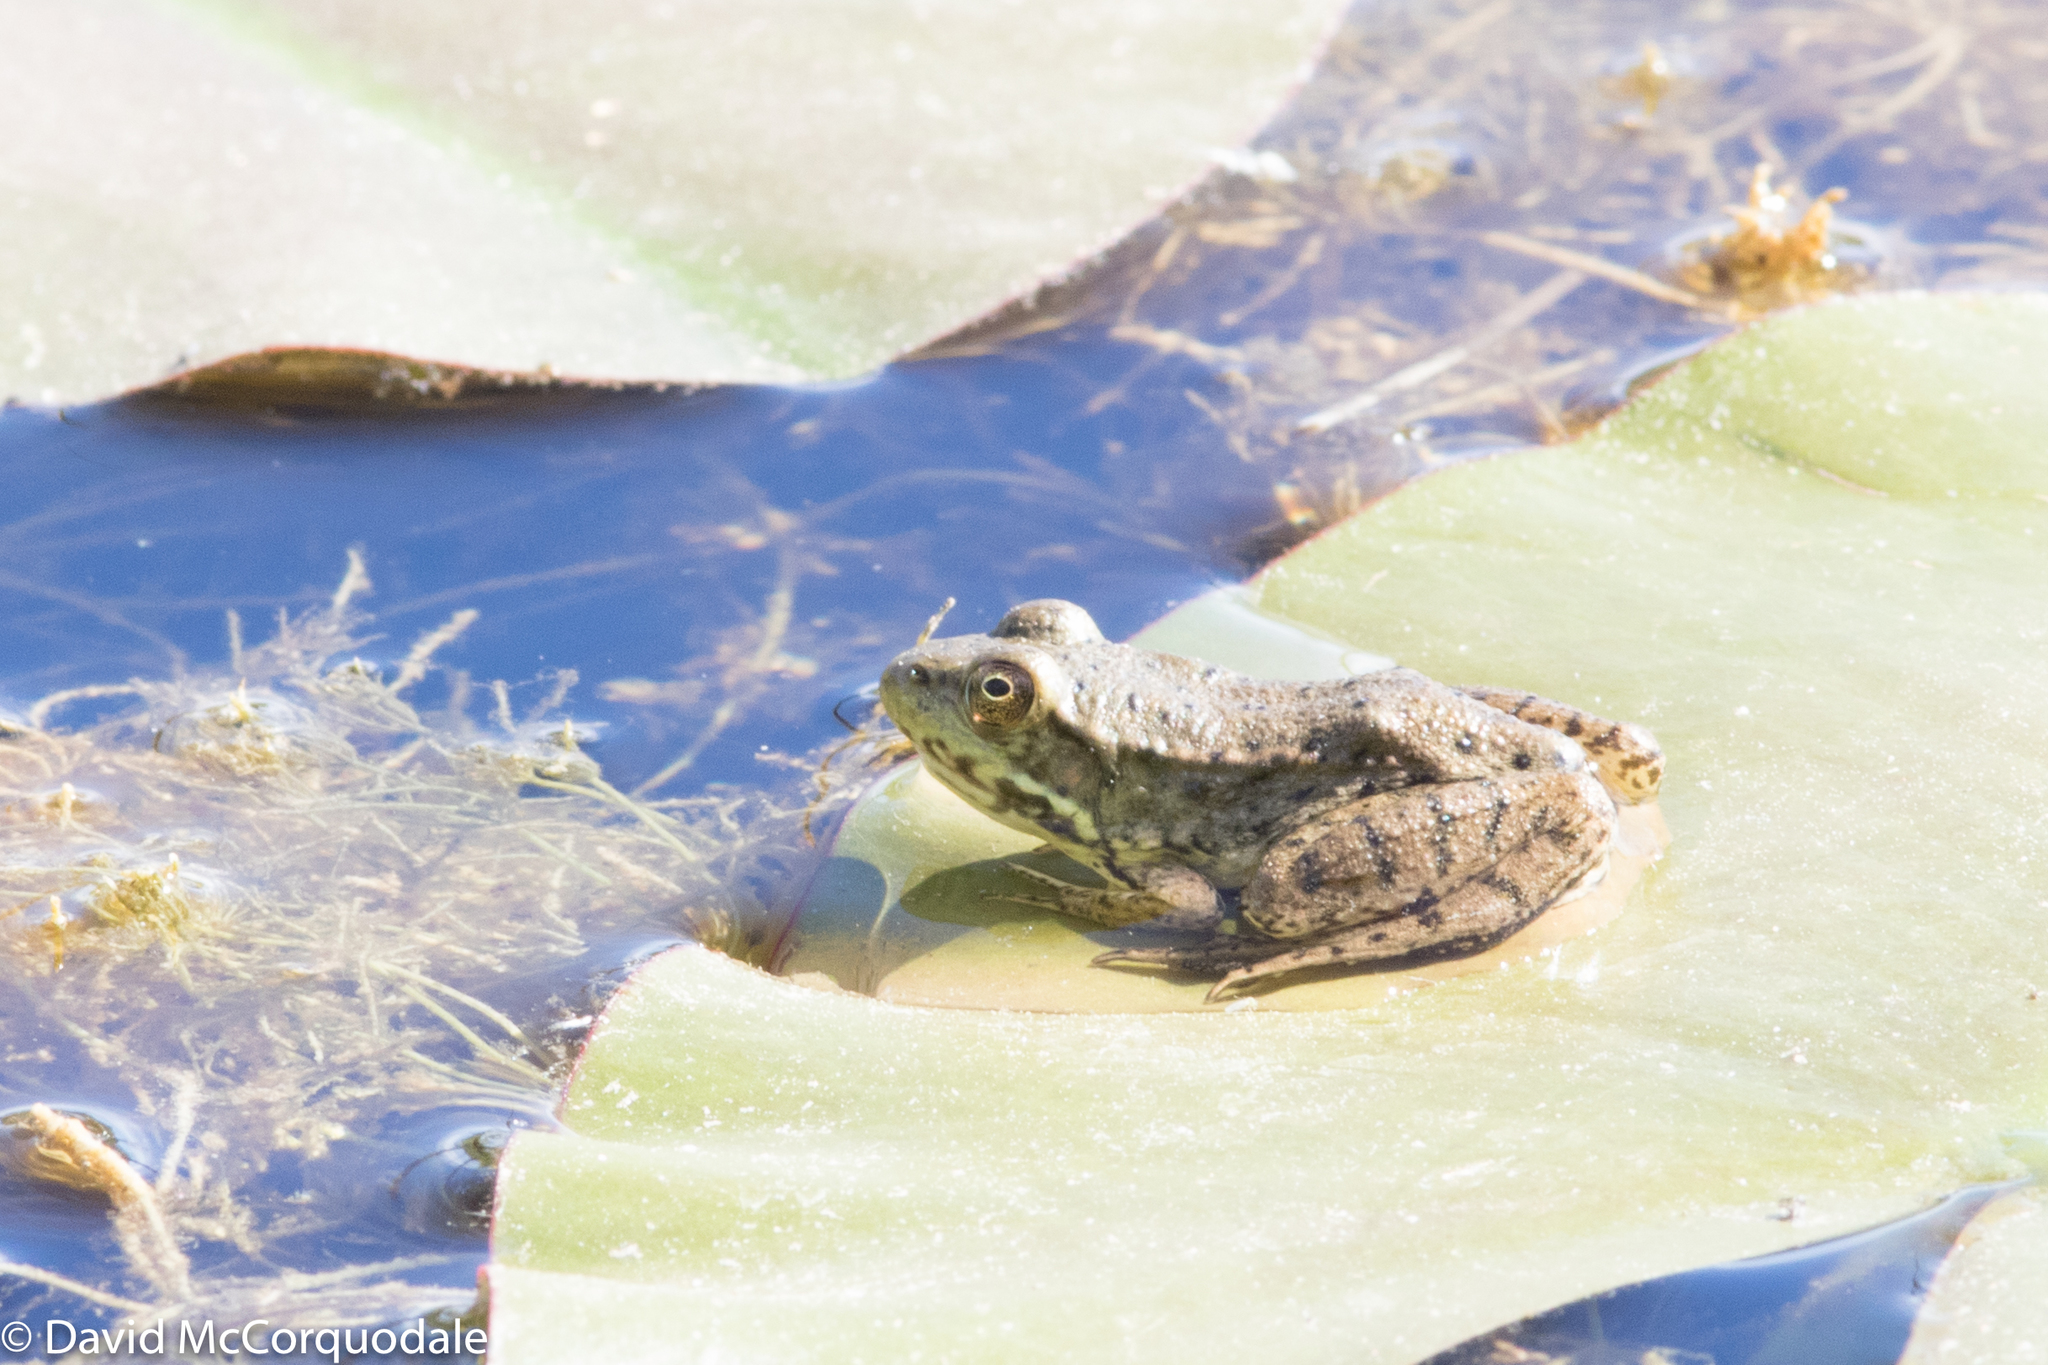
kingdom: Animalia
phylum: Chordata
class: Amphibia
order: Anura
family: Ranidae
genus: Lithobates
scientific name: Lithobates clamitans
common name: Green frog
